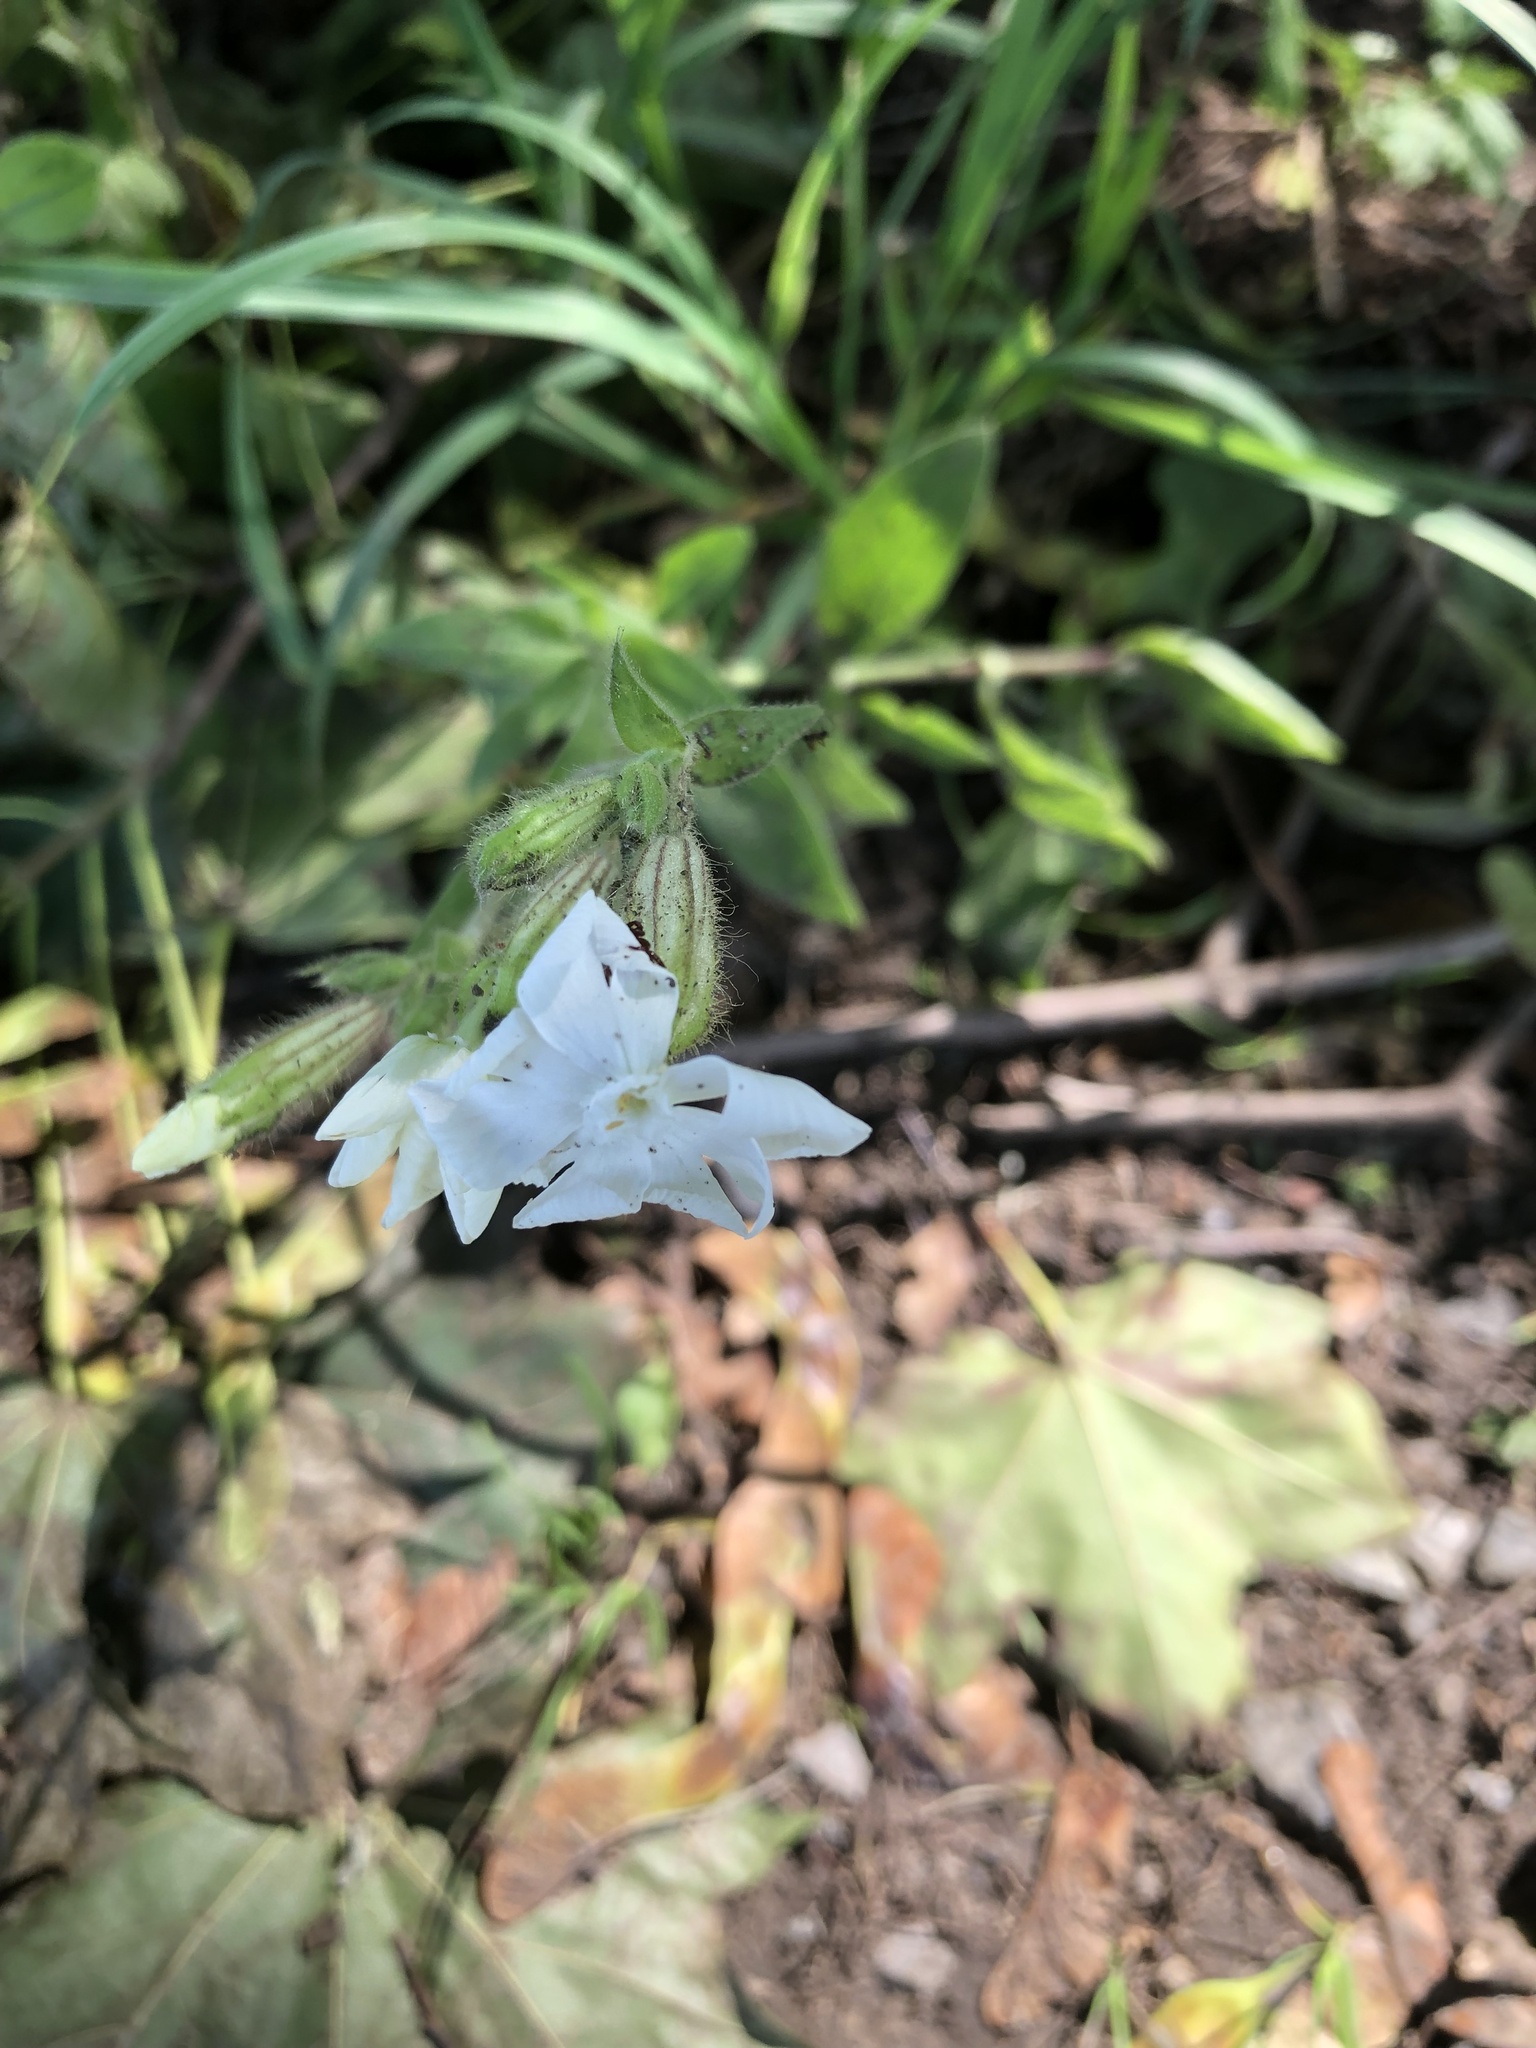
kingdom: Plantae
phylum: Tracheophyta
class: Magnoliopsida
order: Caryophyllales
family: Caryophyllaceae
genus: Silene
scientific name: Silene latifolia
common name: White campion
